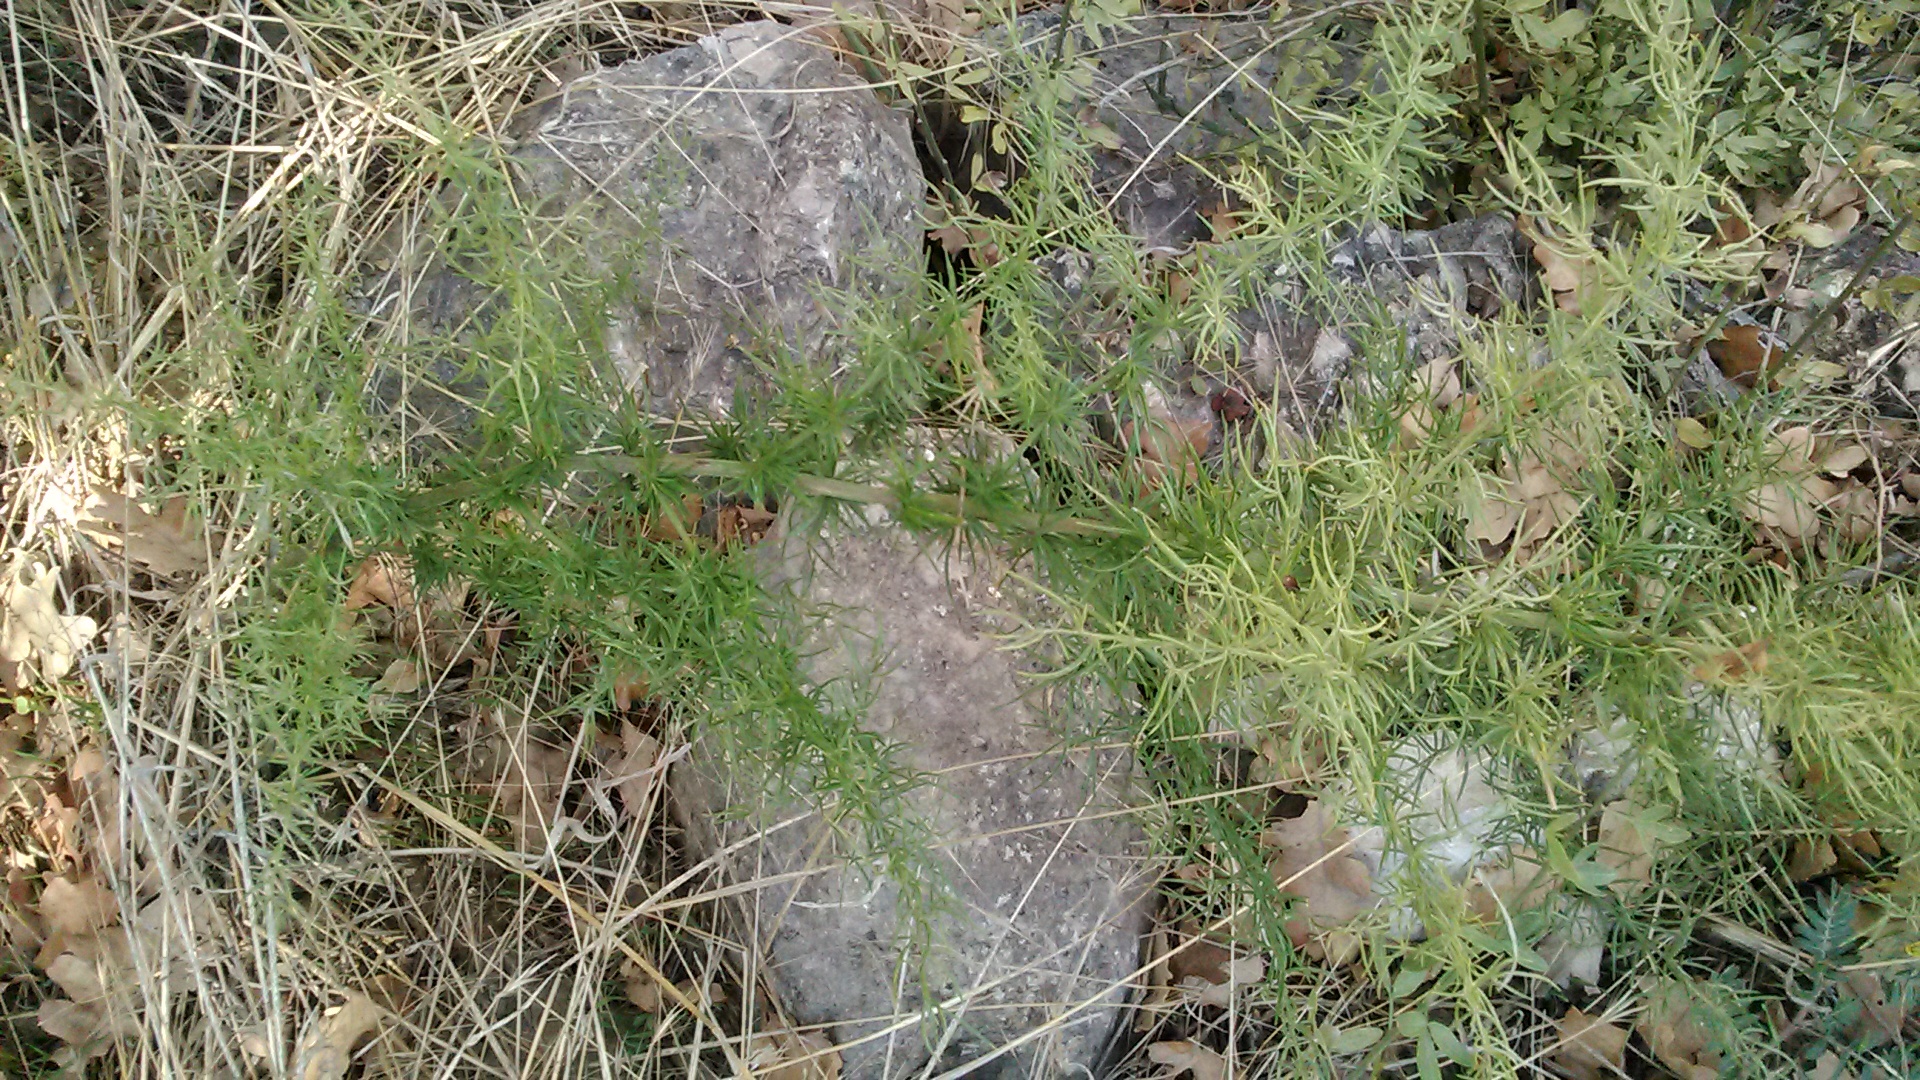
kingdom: Plantae
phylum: Tracheophyta
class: Liliopsida
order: Asparagales
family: Asparagaceae
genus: Asparagus
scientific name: Asparagus verticillatus
